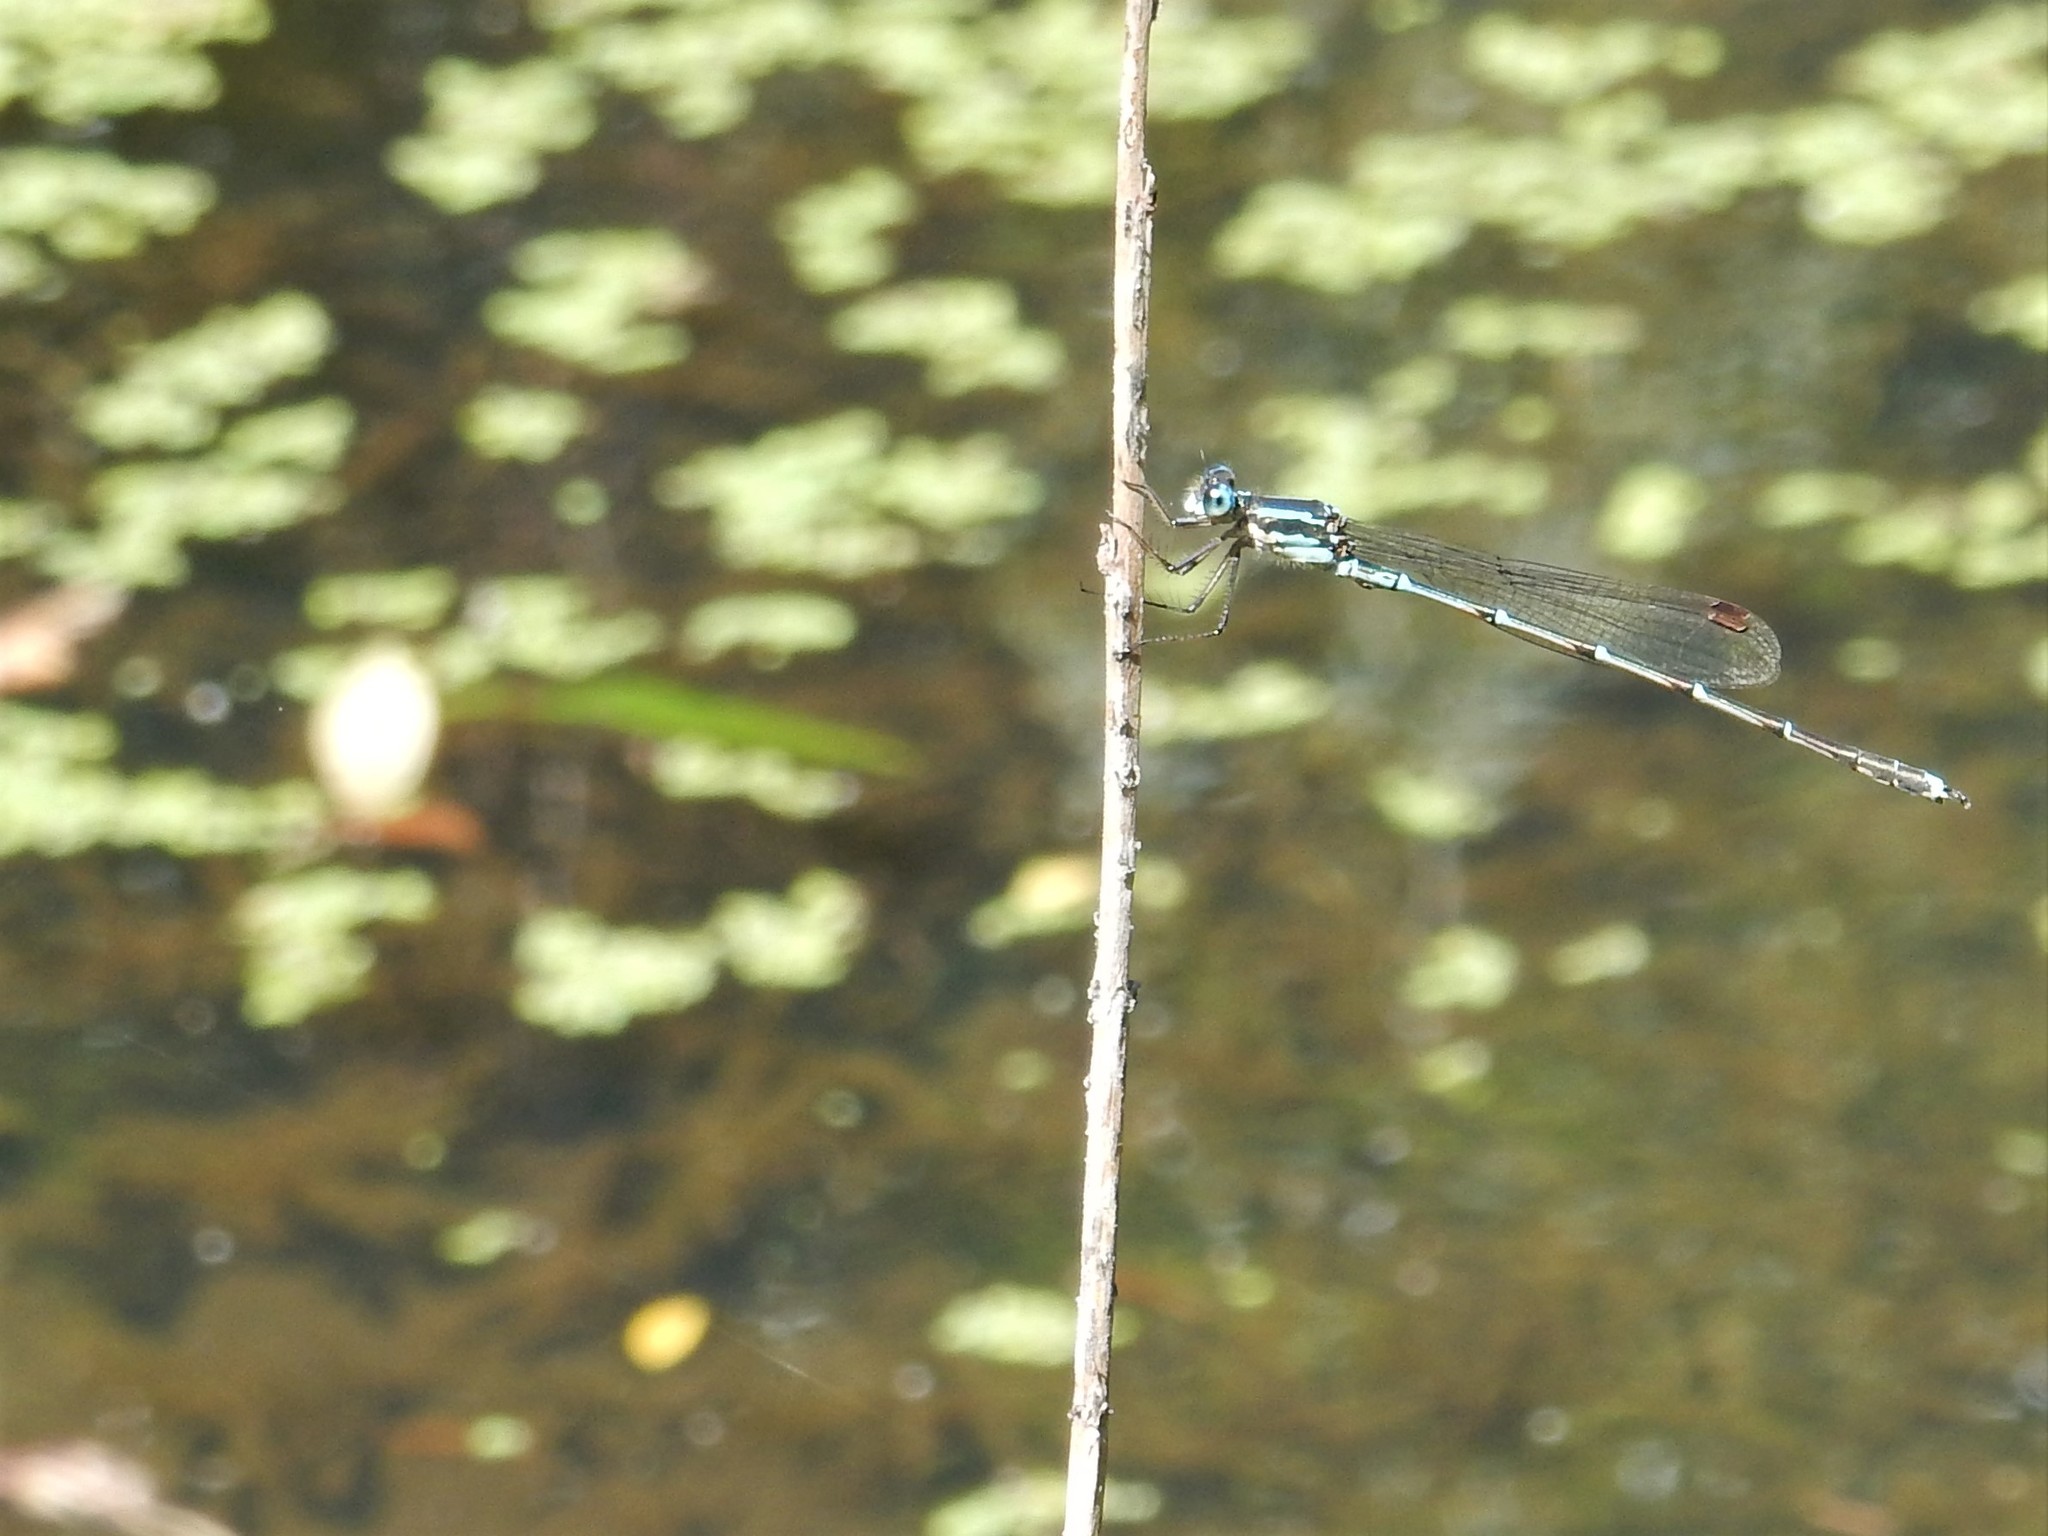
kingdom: Animalia
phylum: Arthropoda
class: Insecta
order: Odonata
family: Lestidae
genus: Austrolestes
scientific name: Austrolestes colensonis
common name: Blue damselfly
